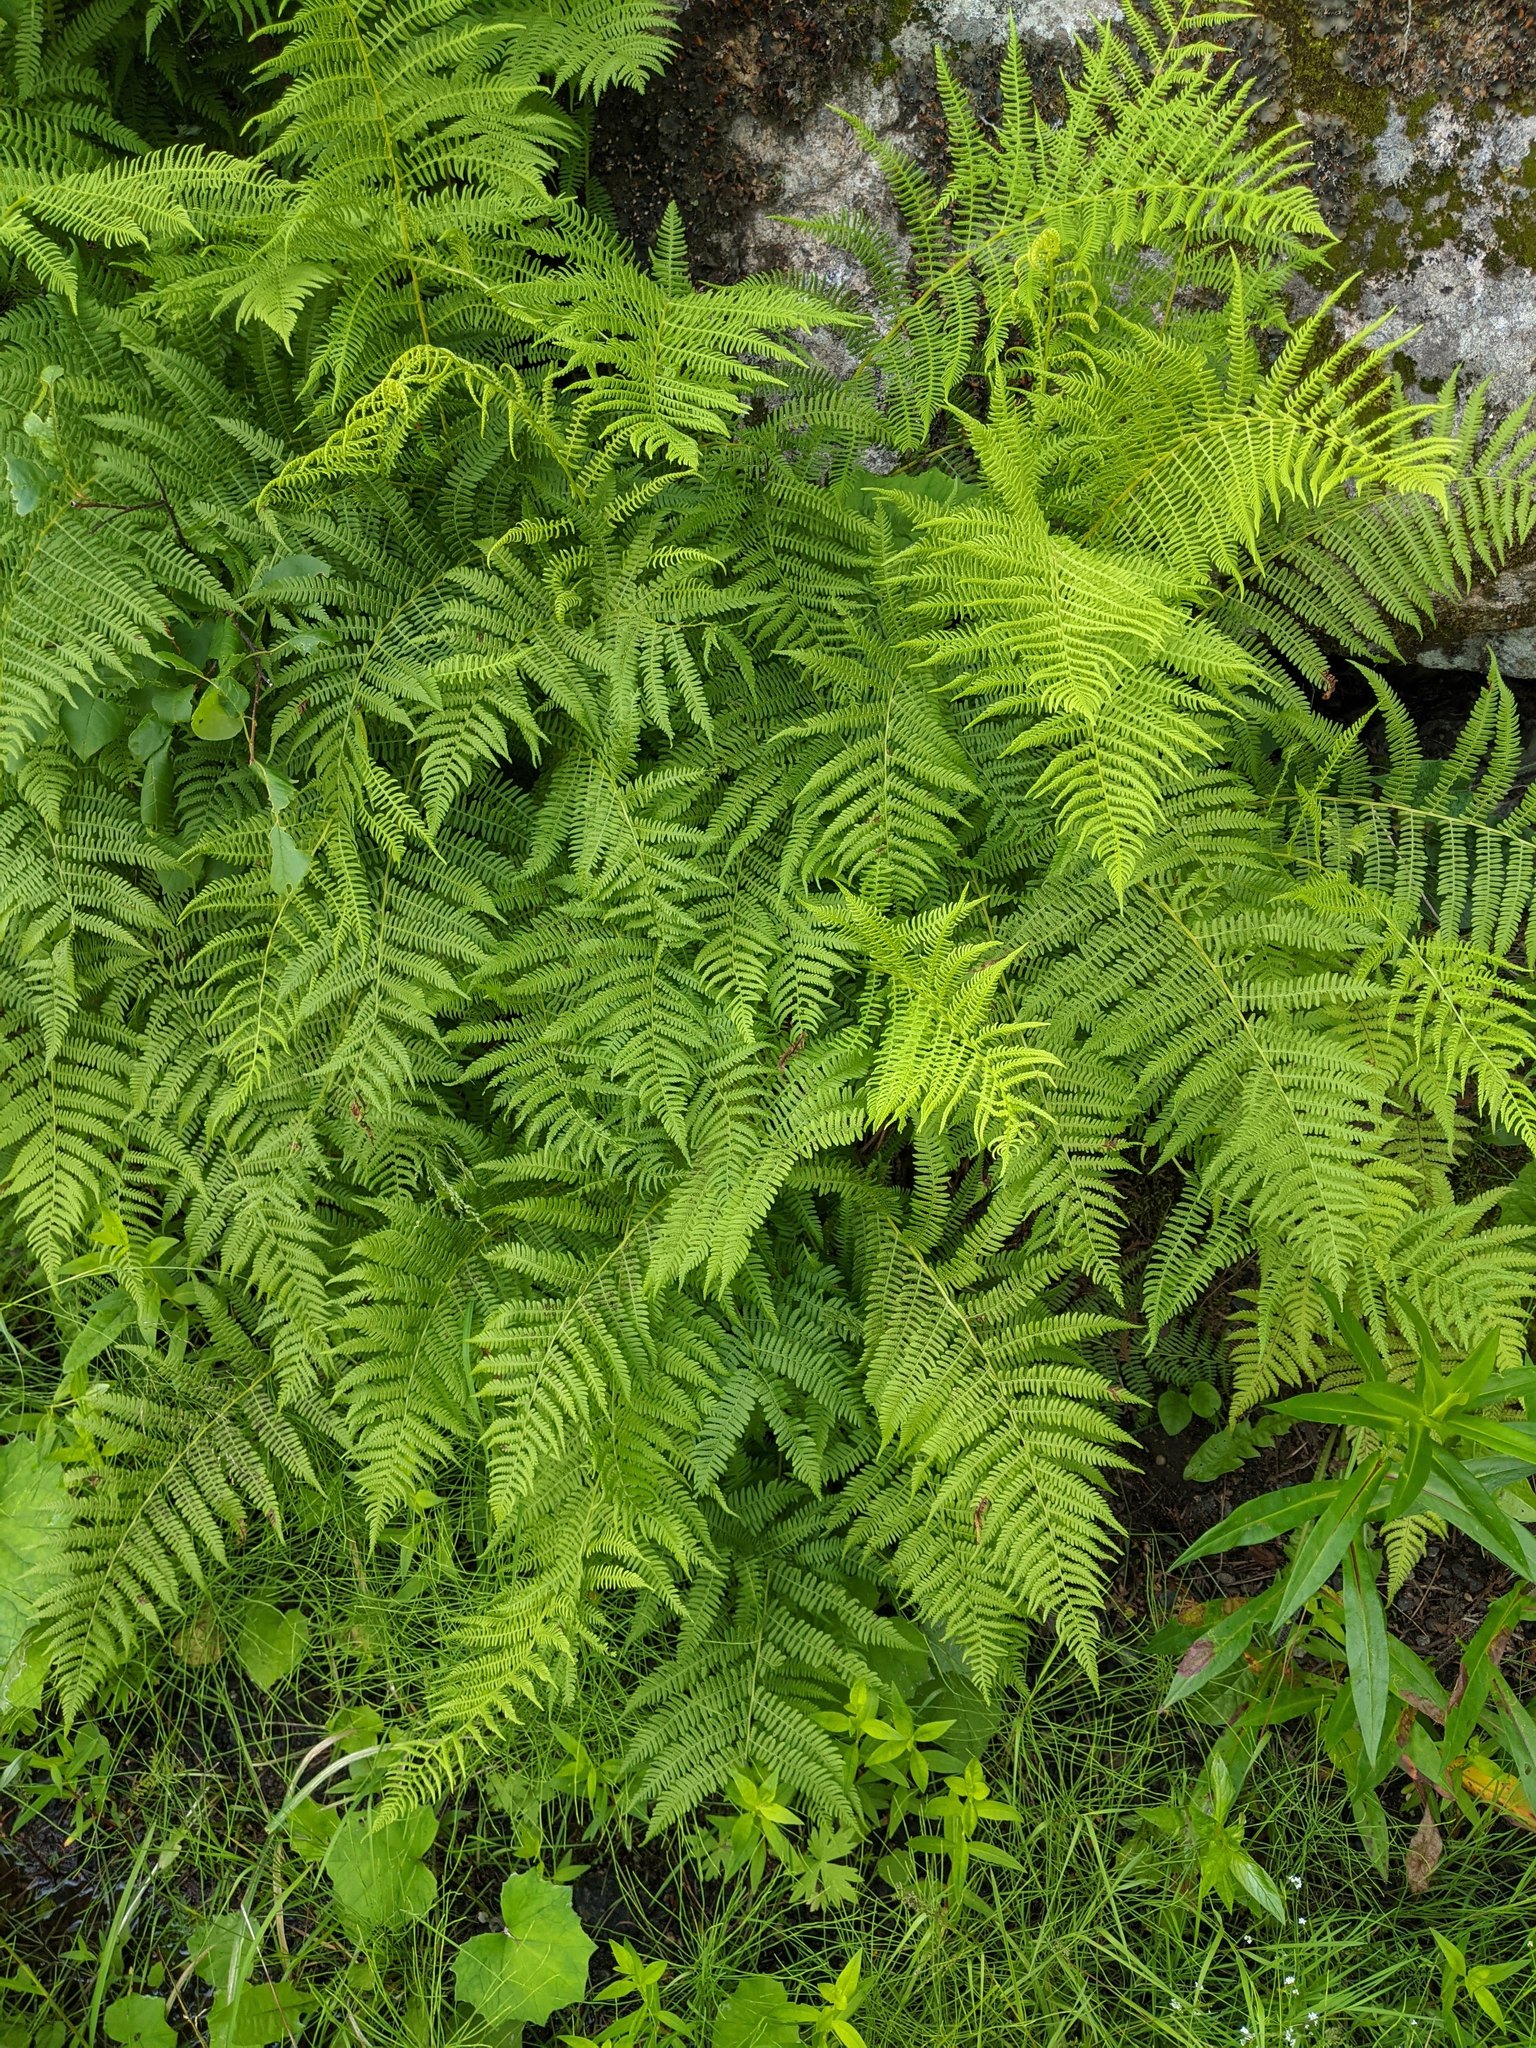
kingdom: Plantae
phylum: Tracheophyta
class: Polypodiopsida
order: Polypodiales
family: Athyriaceae
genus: Athyrium
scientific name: Athyrium angustum
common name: Northern lady fern
